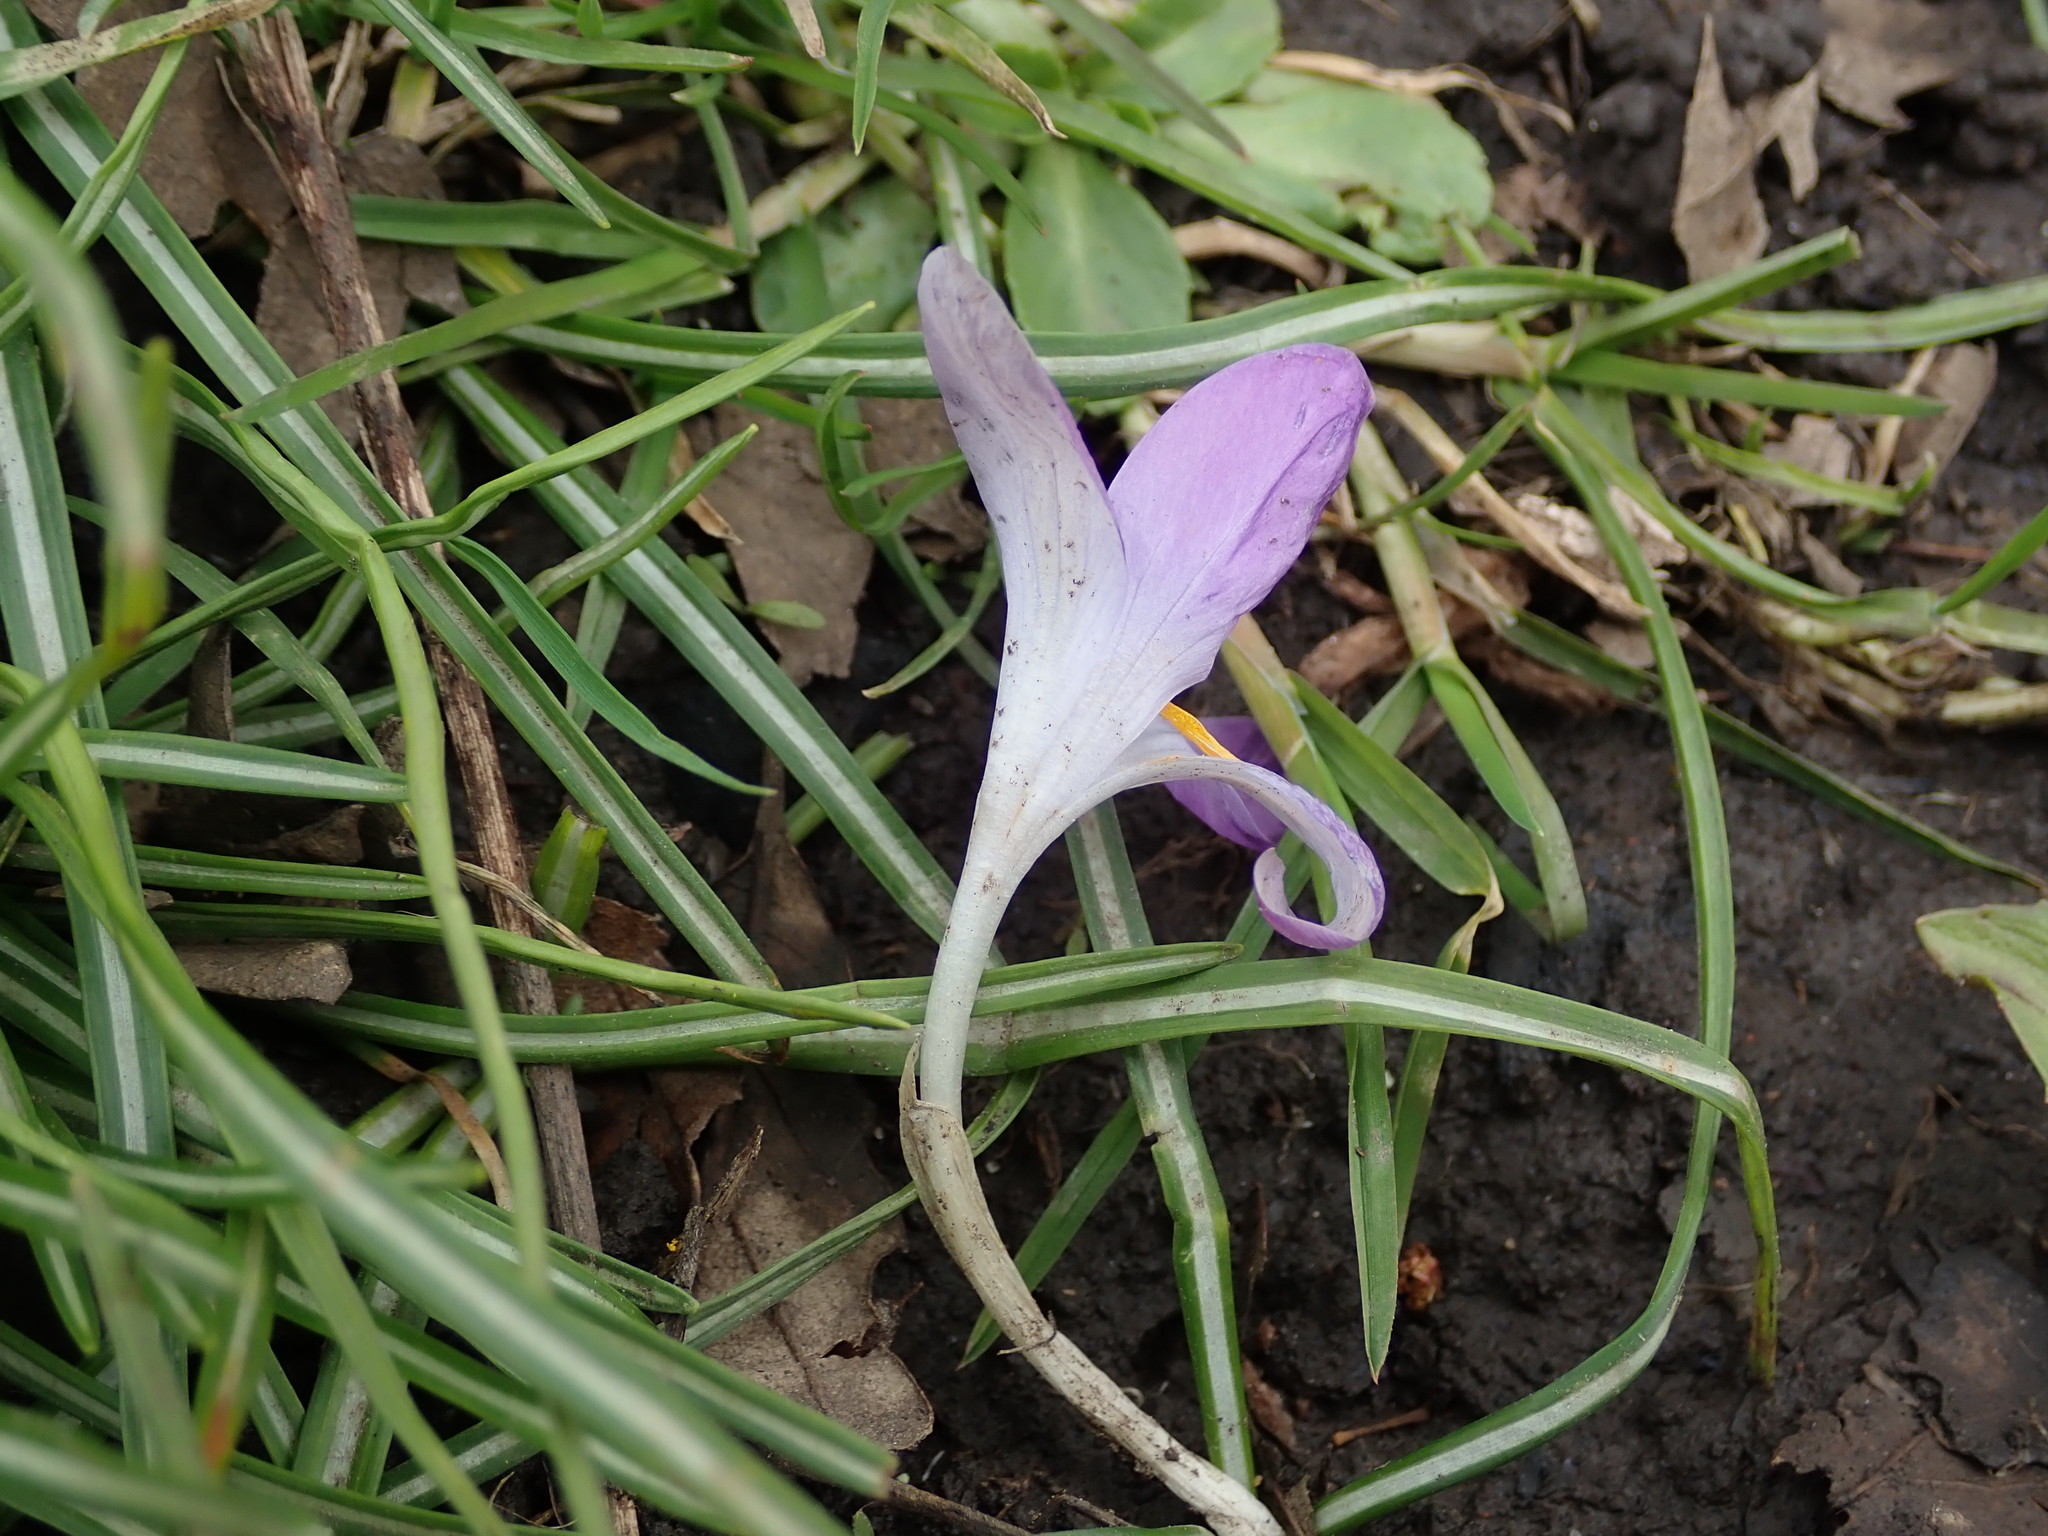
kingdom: Plantae
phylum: Tracheophyta
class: Liliopsida
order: Asparagales
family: Iridaceae
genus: Crocus
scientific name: Crocus tommasinianus
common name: Early crocus
